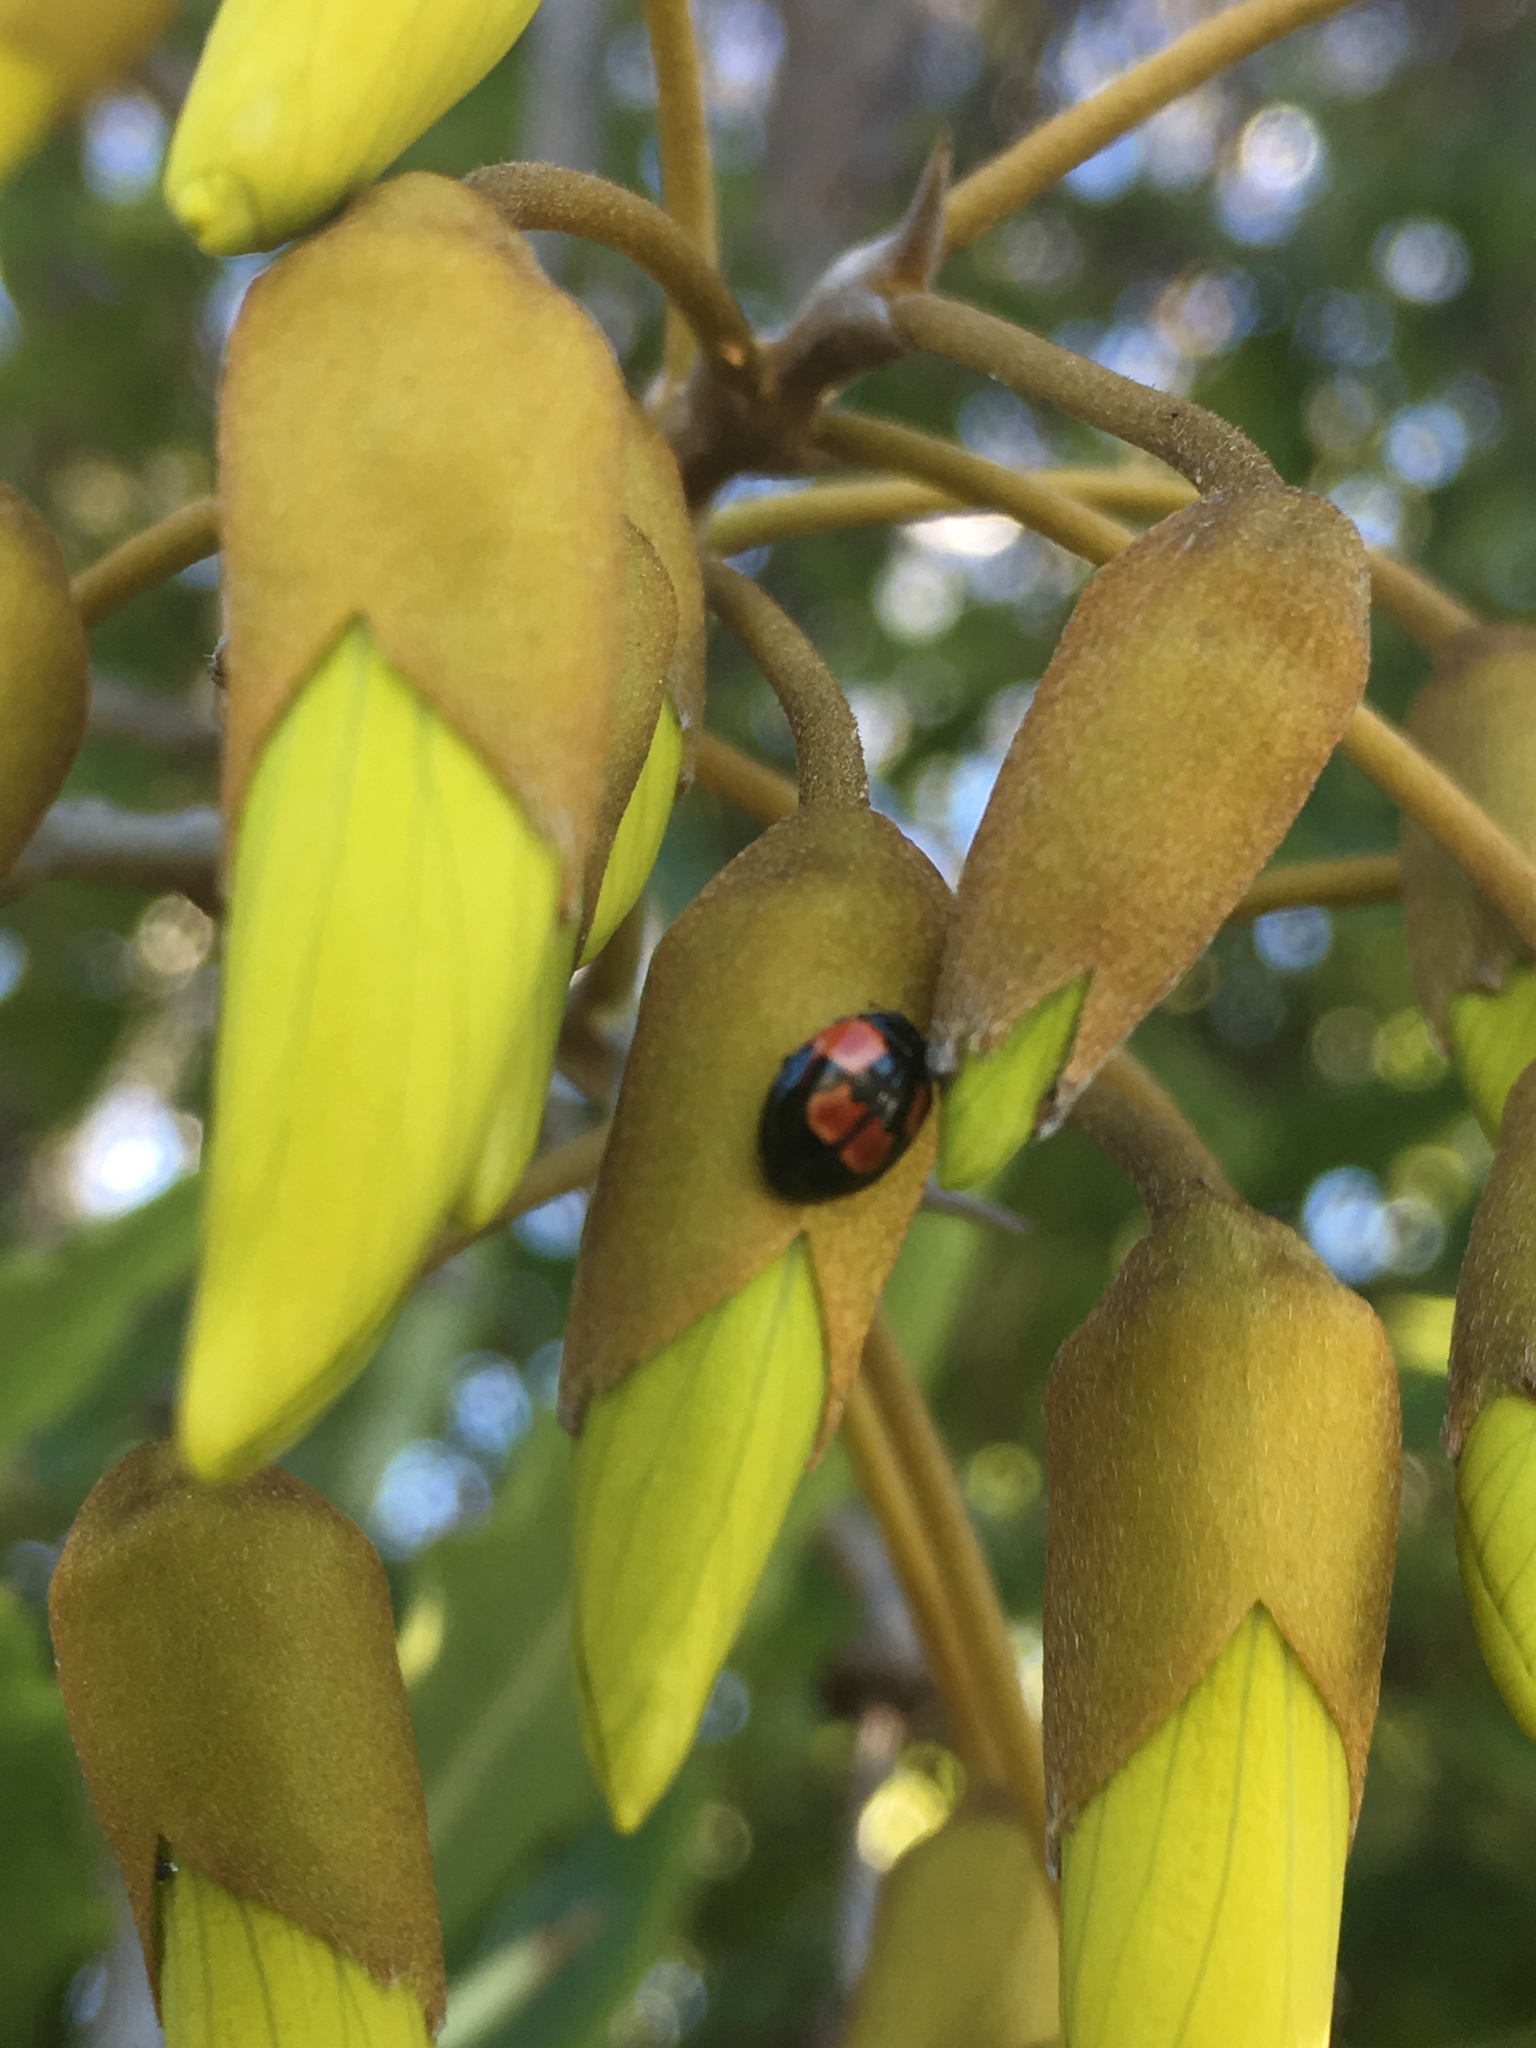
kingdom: Animalia
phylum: Arthropoda
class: Insecta
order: Coleoptera
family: Coccinellidae
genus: Adalia
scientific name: Adalia bipunctata
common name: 2-spot ladybird
